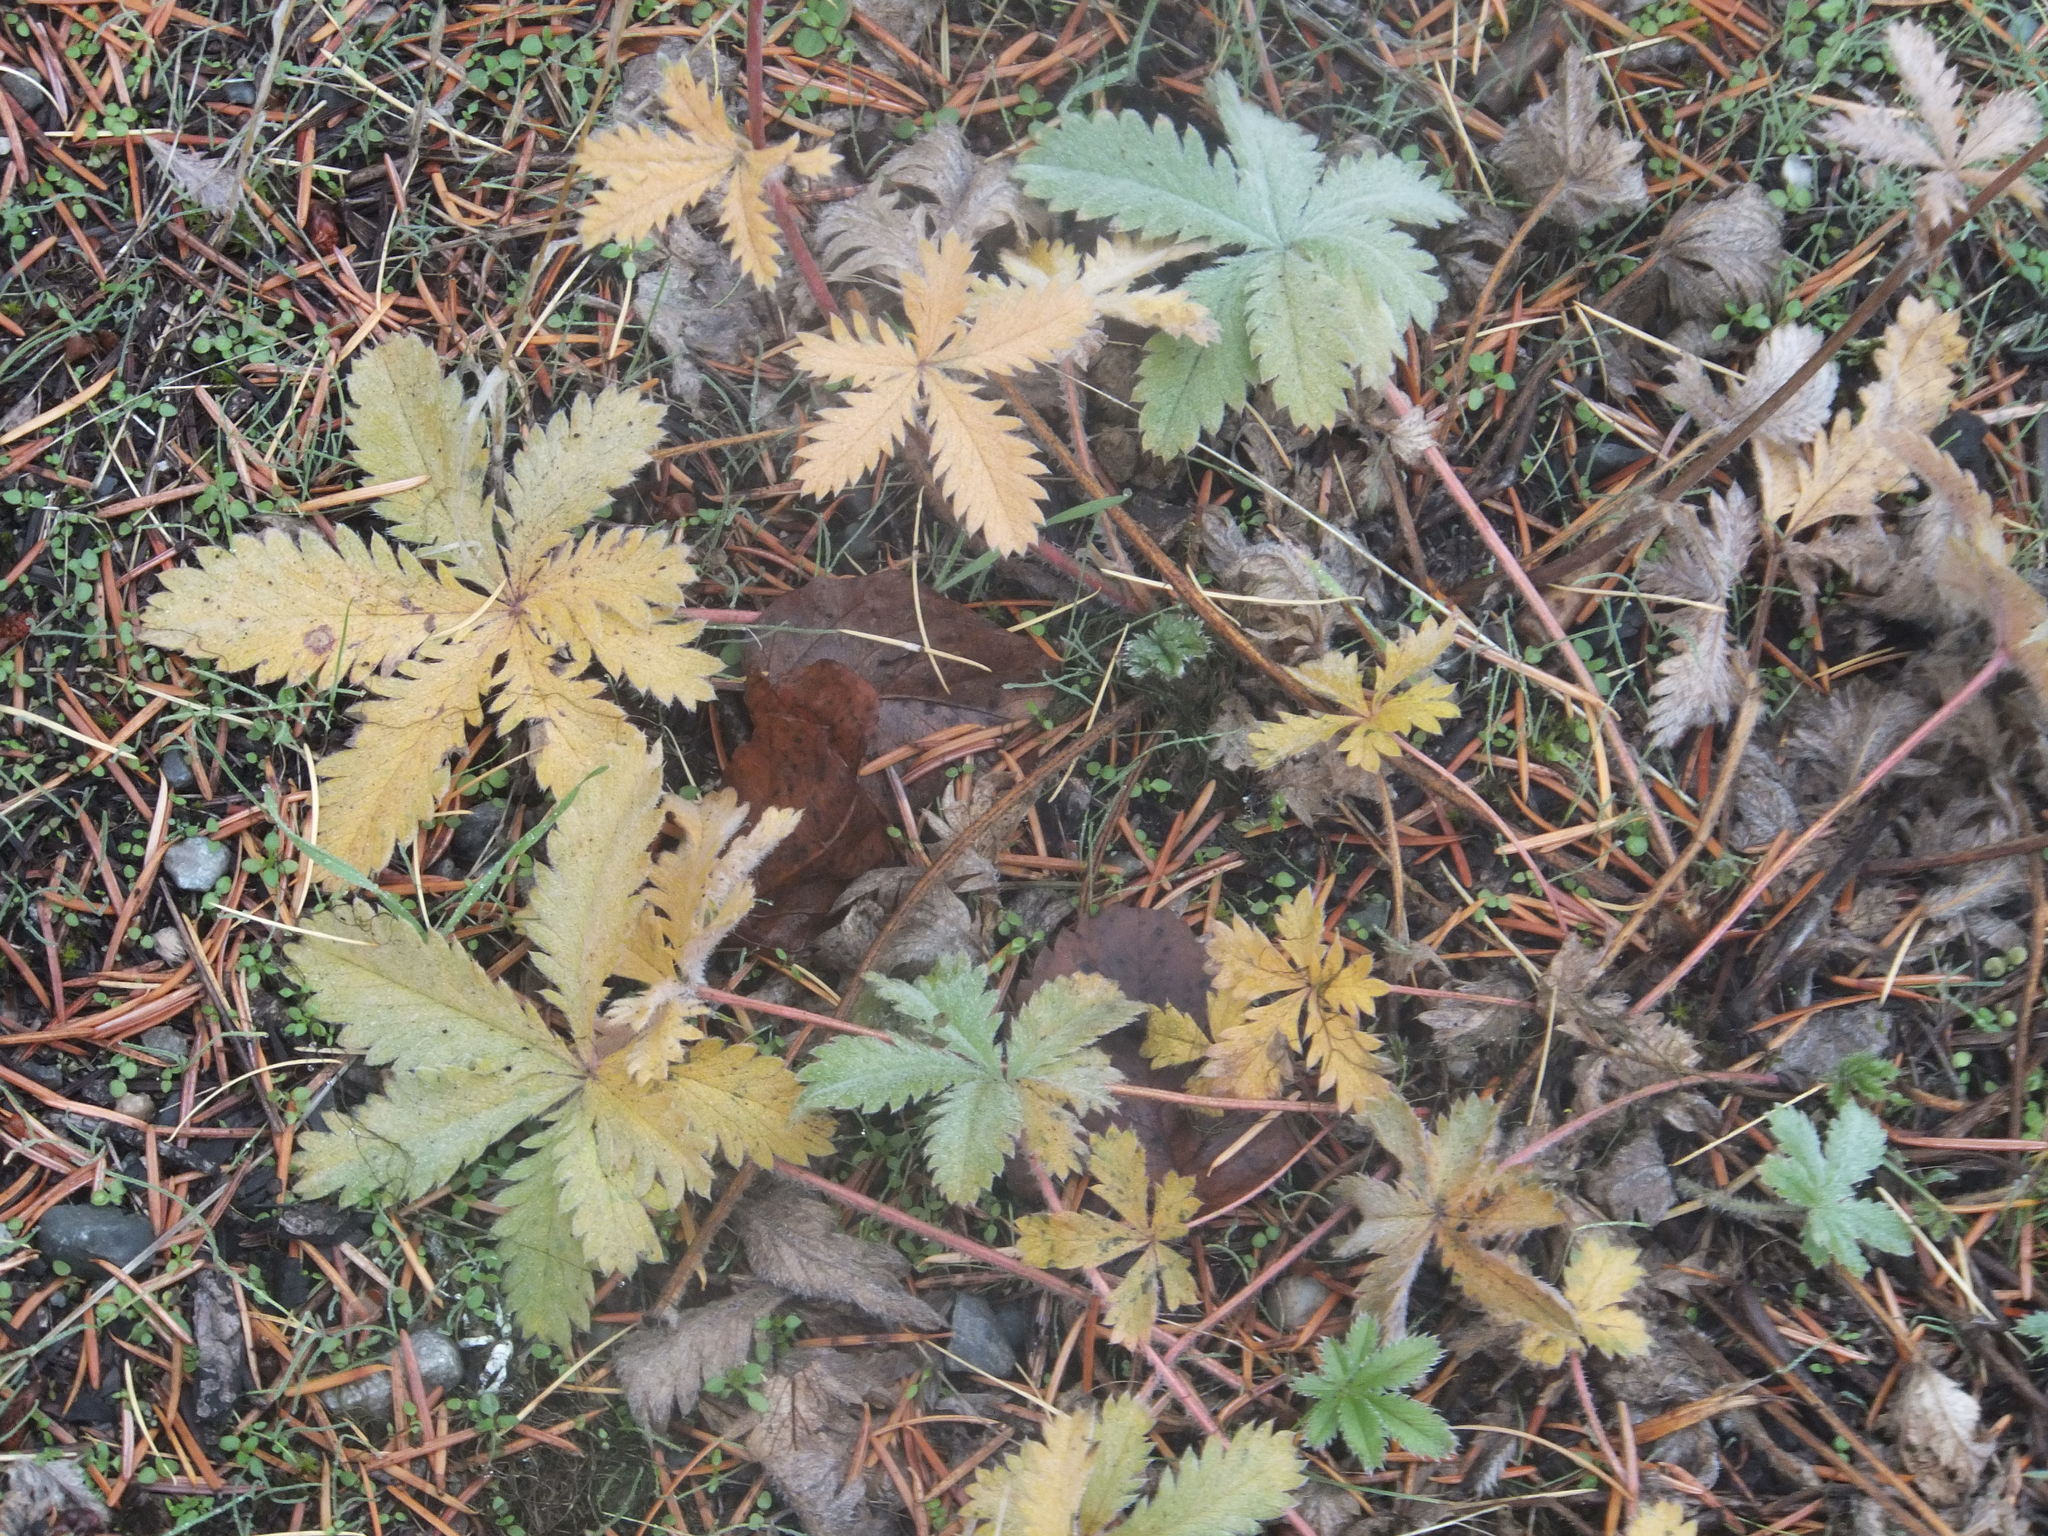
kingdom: Plantae
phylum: Tracheophyta
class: Magnoliopsida
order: Rosales
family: Rosaceae
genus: Potentilla
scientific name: Potentilla recta
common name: Sulphur cinquefoil
